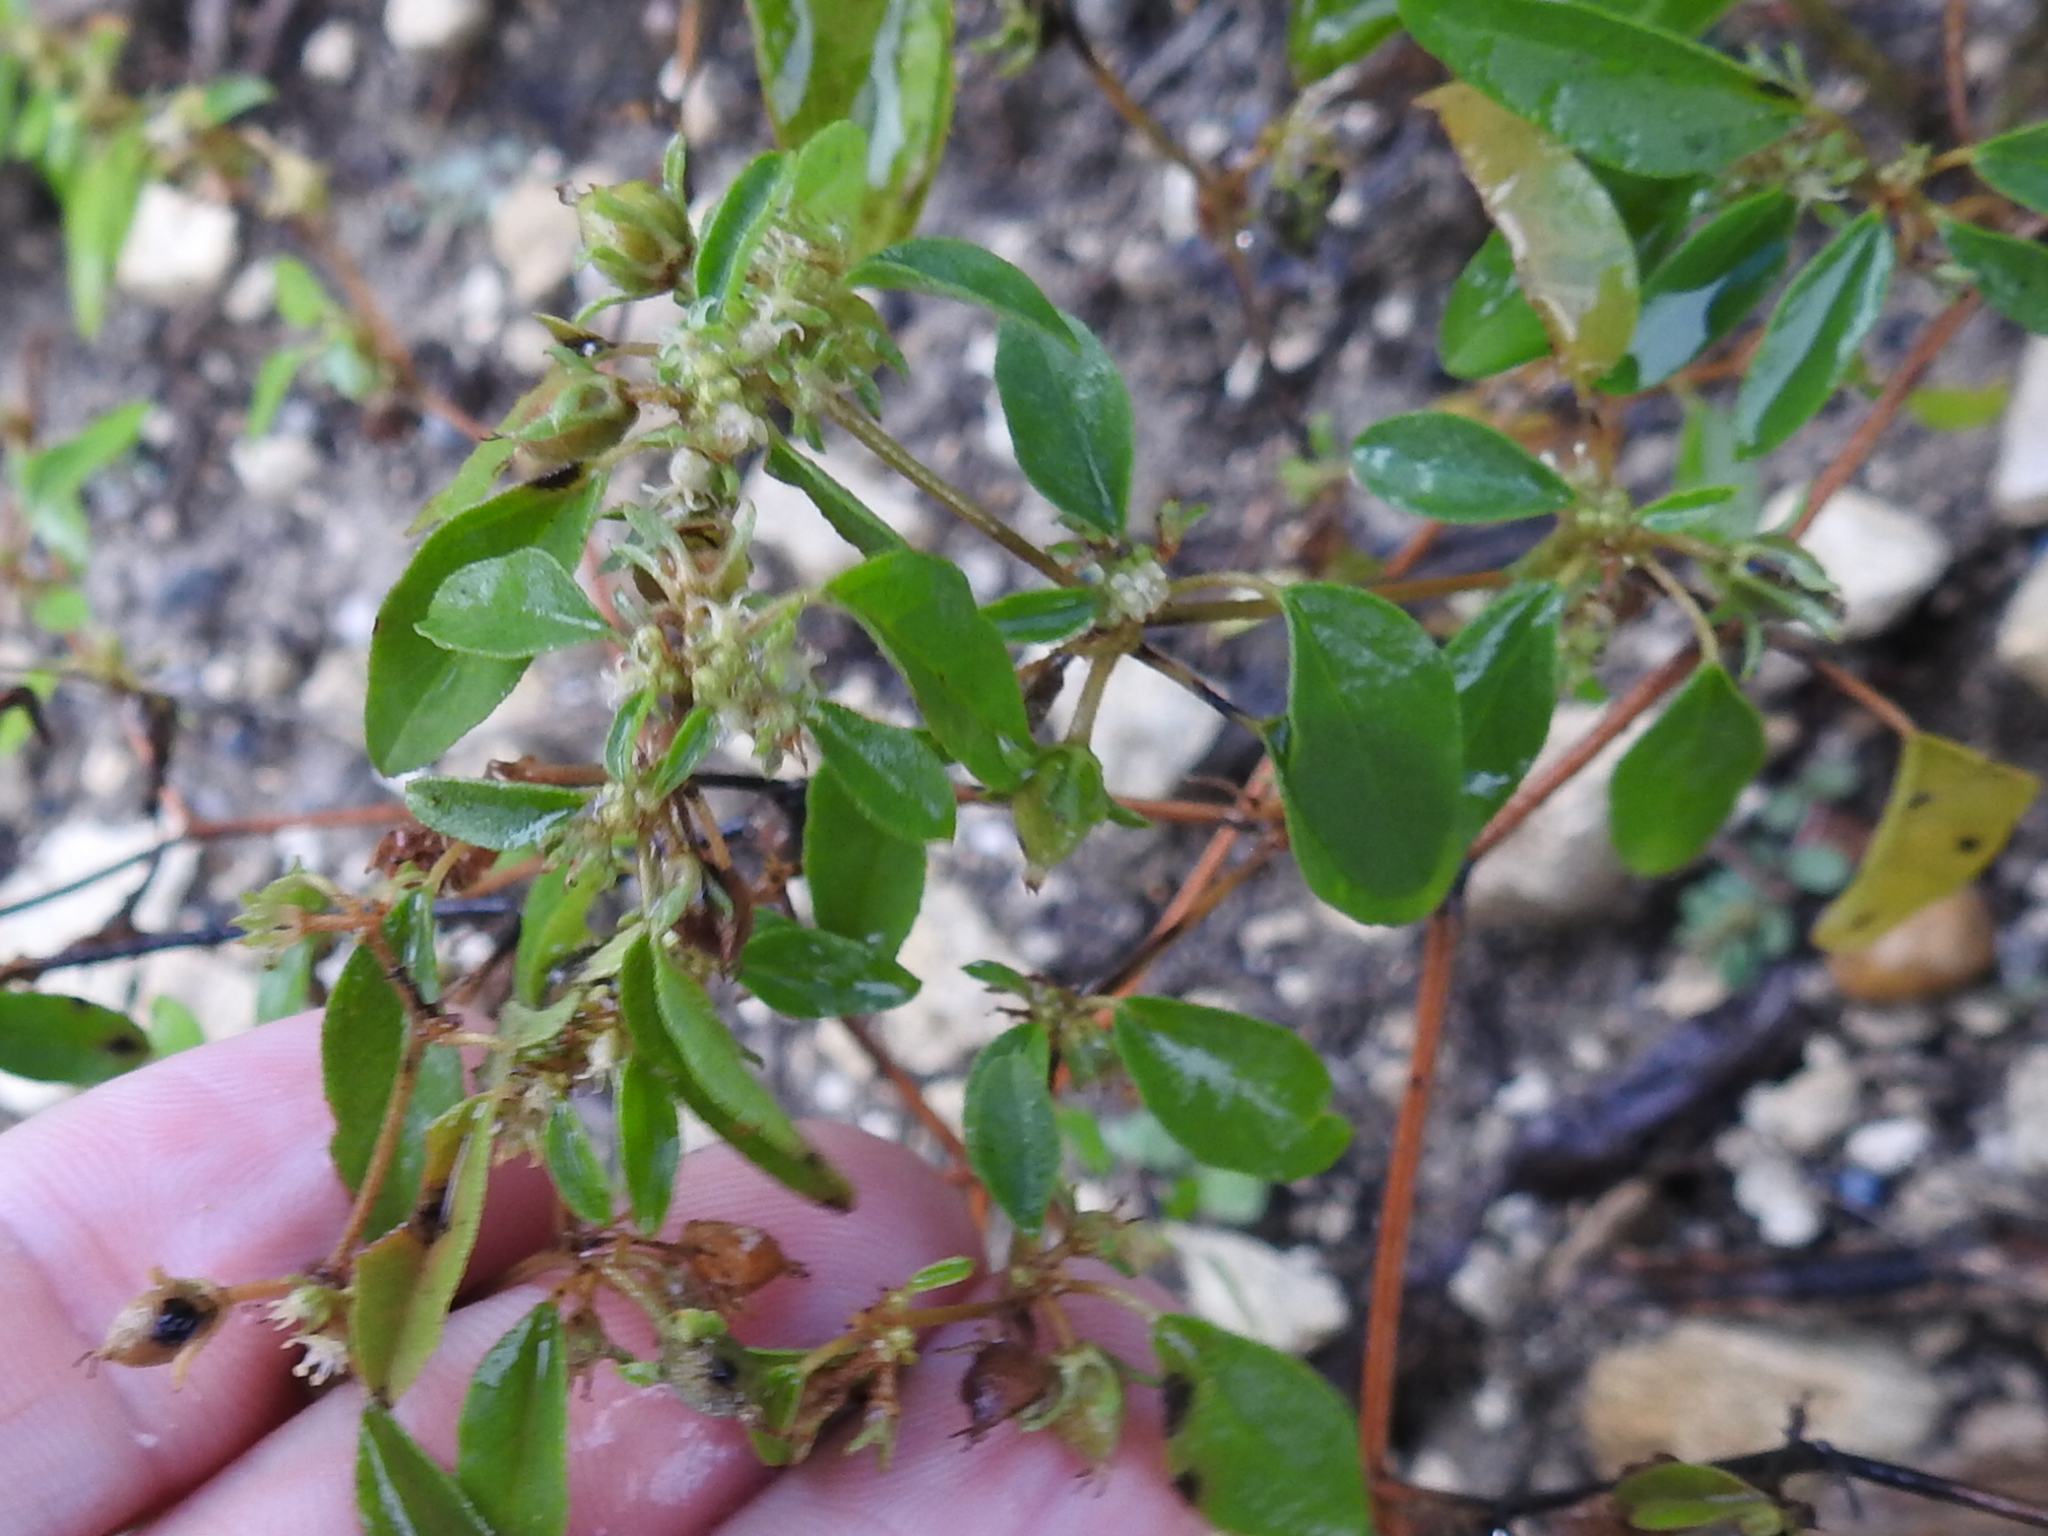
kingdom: Plantae
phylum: Tracheophyta
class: Magnoliopsida
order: Malpighiales
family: Euphorbiaceae
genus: Croton
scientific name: Croton monanthogynus
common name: One-seed croton
